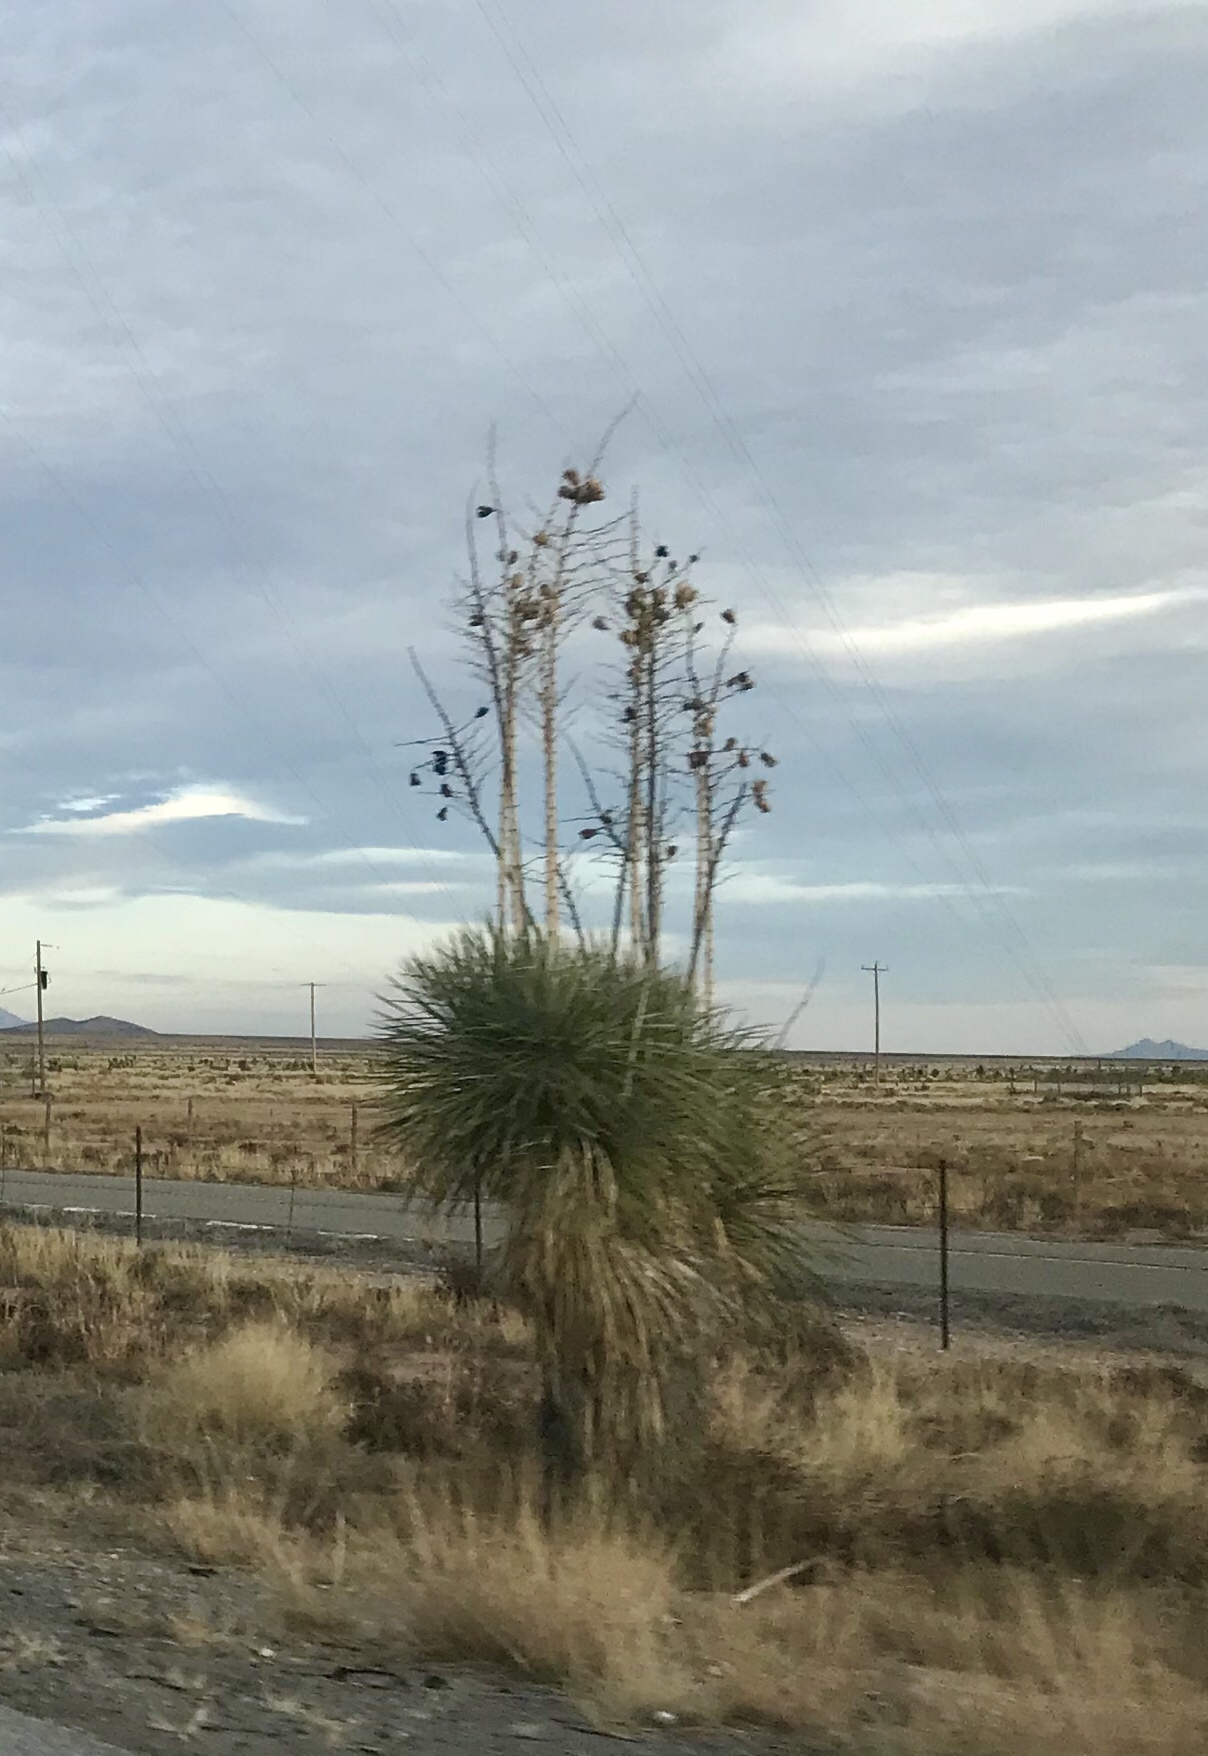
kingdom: Plantae
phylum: Tracheophyta
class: Liliopsida
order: Asparagales
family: Asparagaceae
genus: Yucca
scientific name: Yucca elata
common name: Palmella
